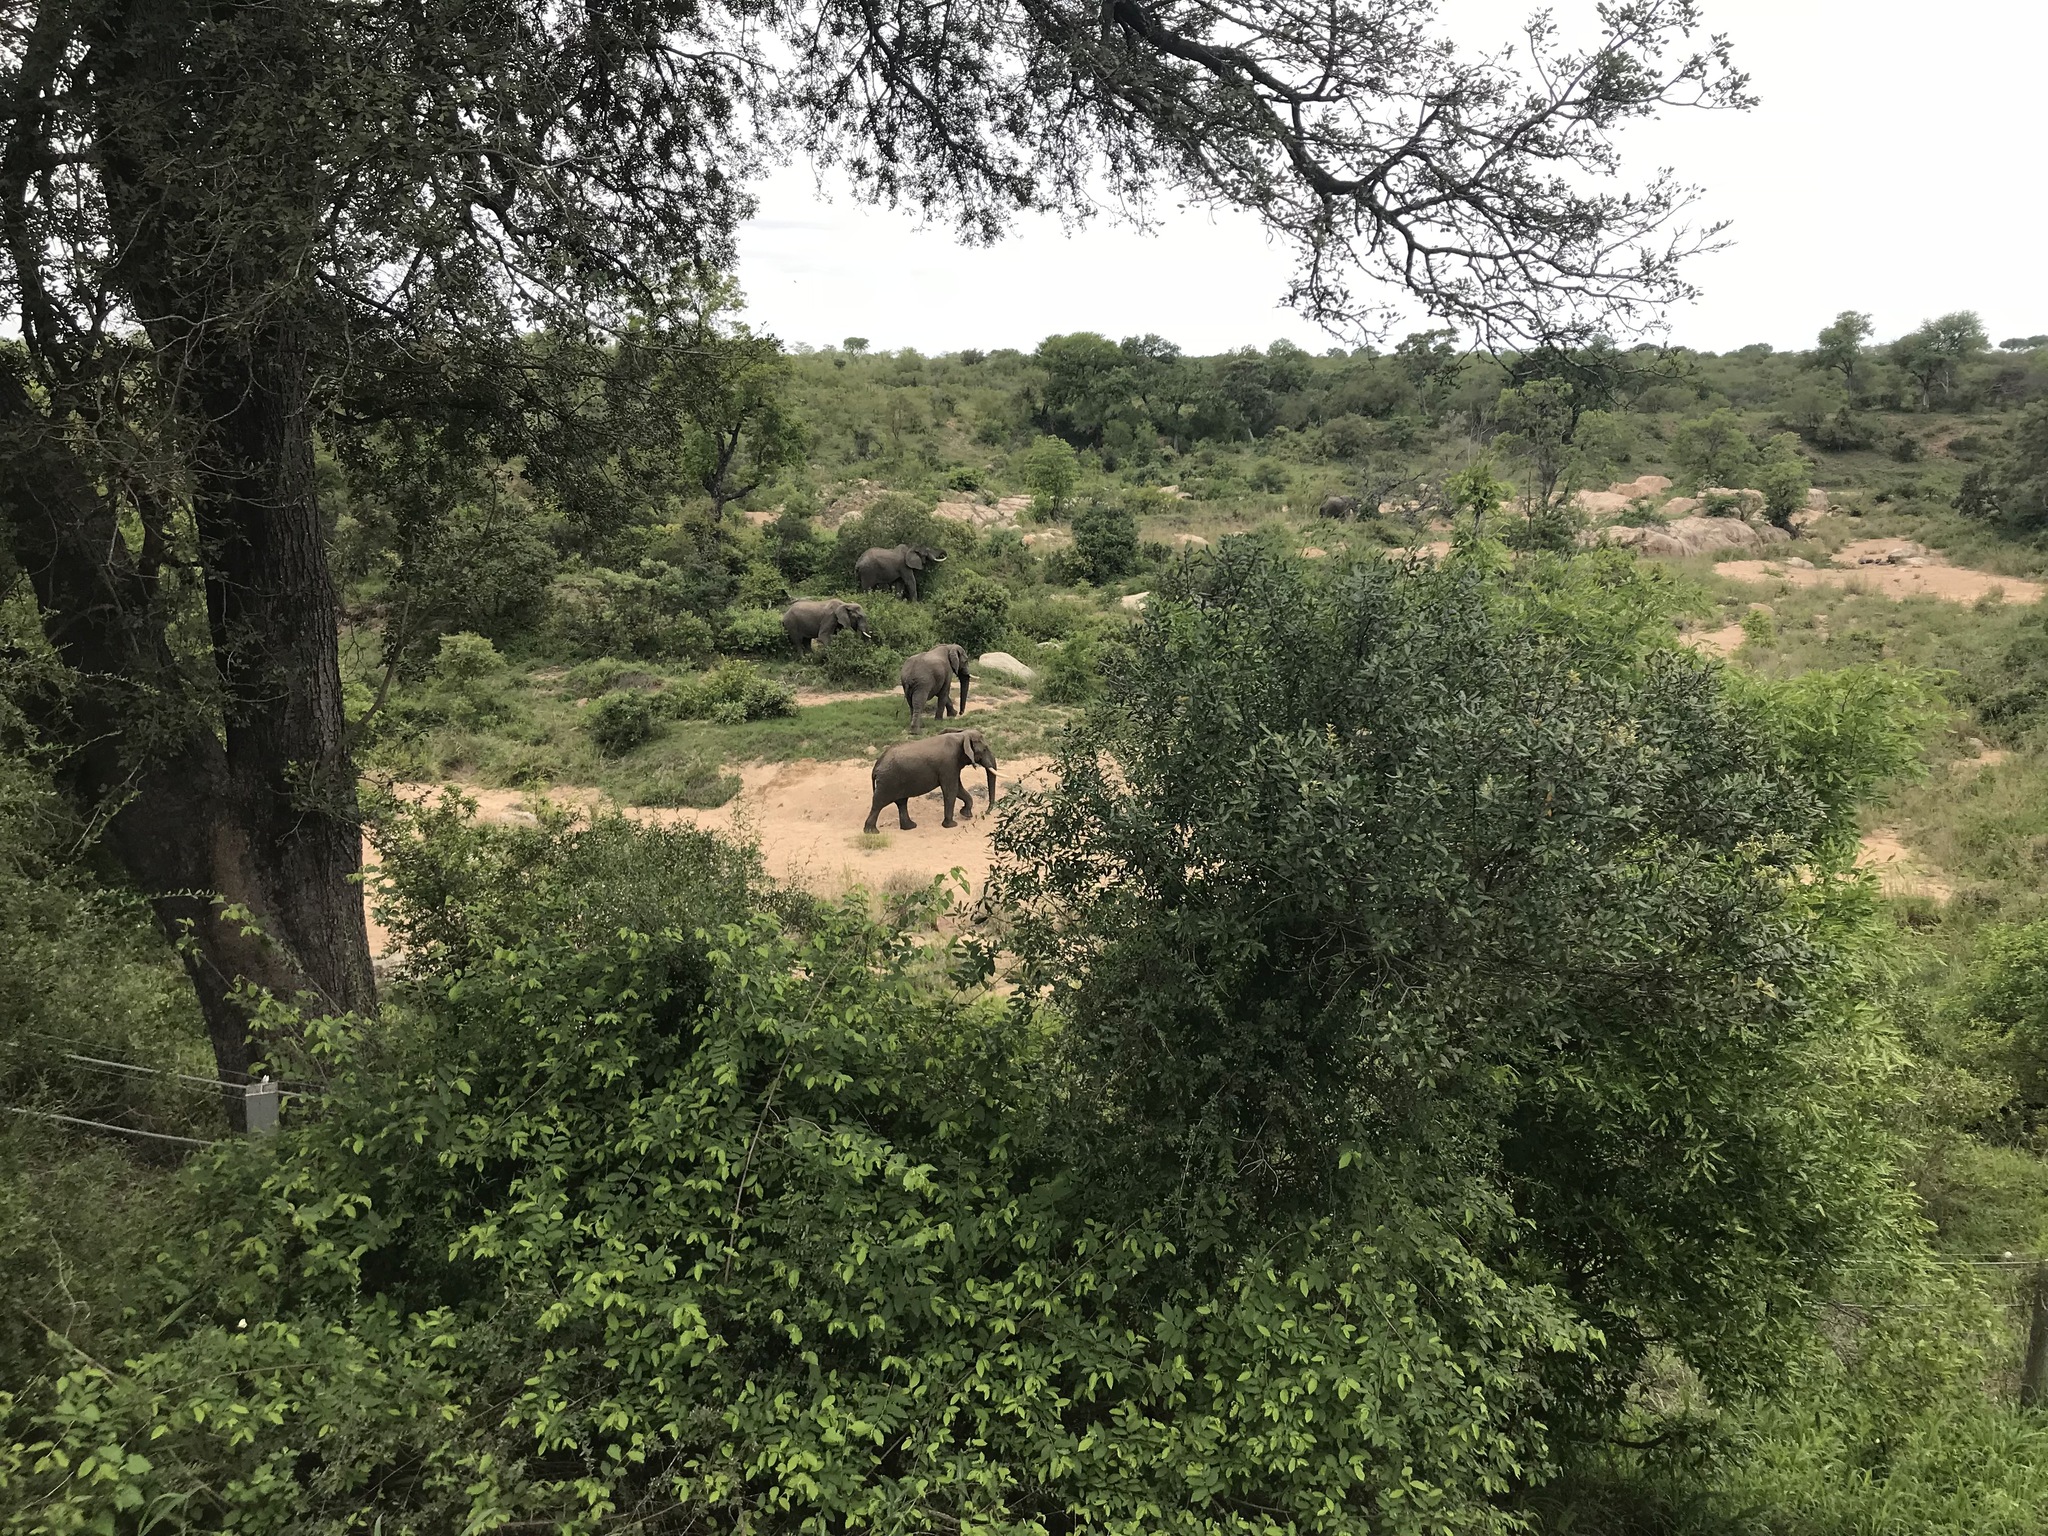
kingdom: Animalia
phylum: Chordata
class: Mammalia
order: Proboscidea
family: Elephantidae
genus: Loxodonta
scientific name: Loxodonta africana
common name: African elephant
